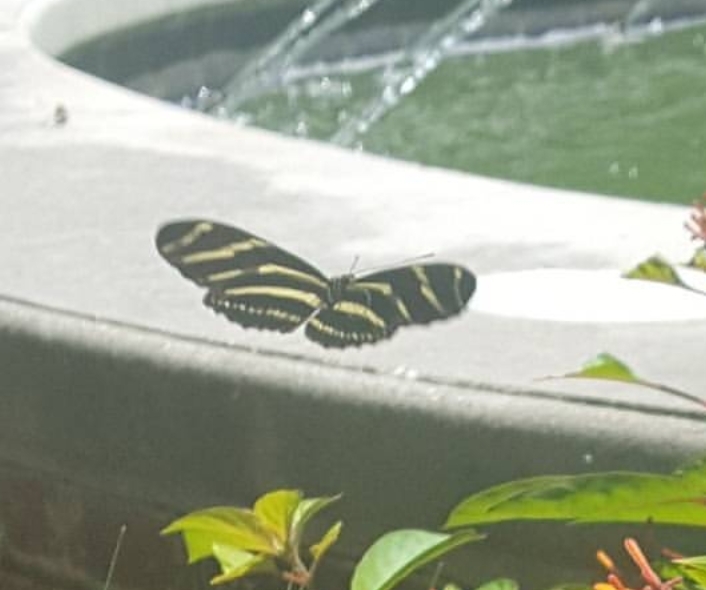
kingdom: Animalia
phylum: Arthropoda
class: Insecta
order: Lepidoptera
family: Nymphalidae
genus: Heliconius
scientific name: Heliconius charithonia
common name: Zebra long wing
